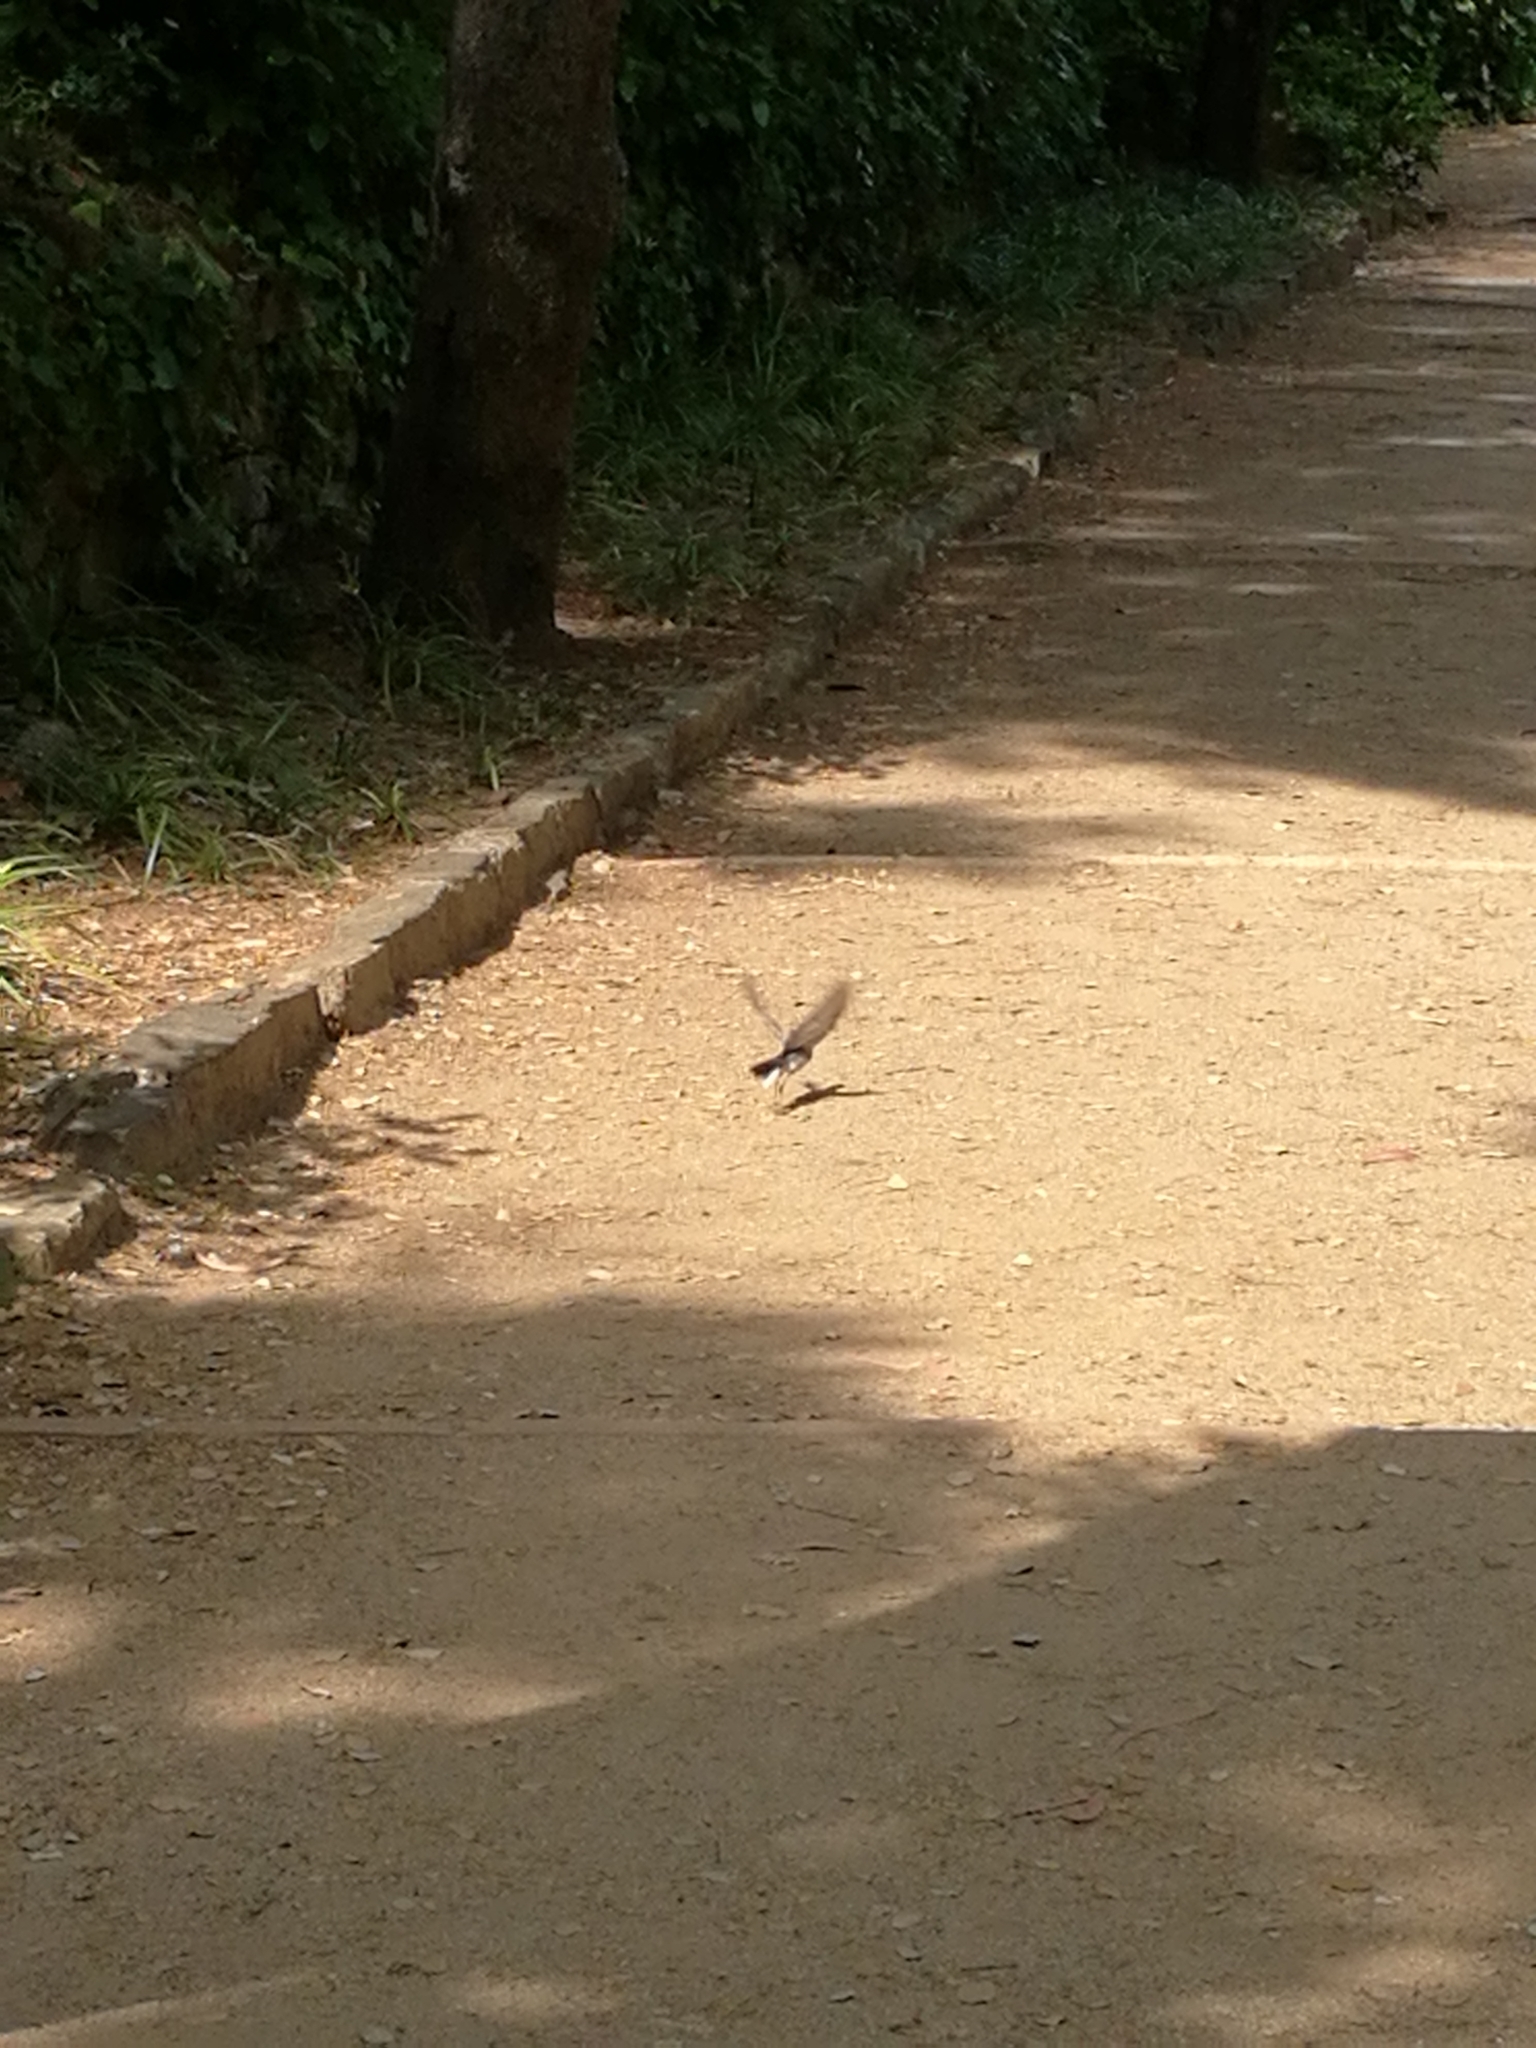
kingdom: Animalia
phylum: Chordata
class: Aves
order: Passeriformes
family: Motacillidae
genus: Motacilla
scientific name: Motacilla alba
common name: White wagtail
